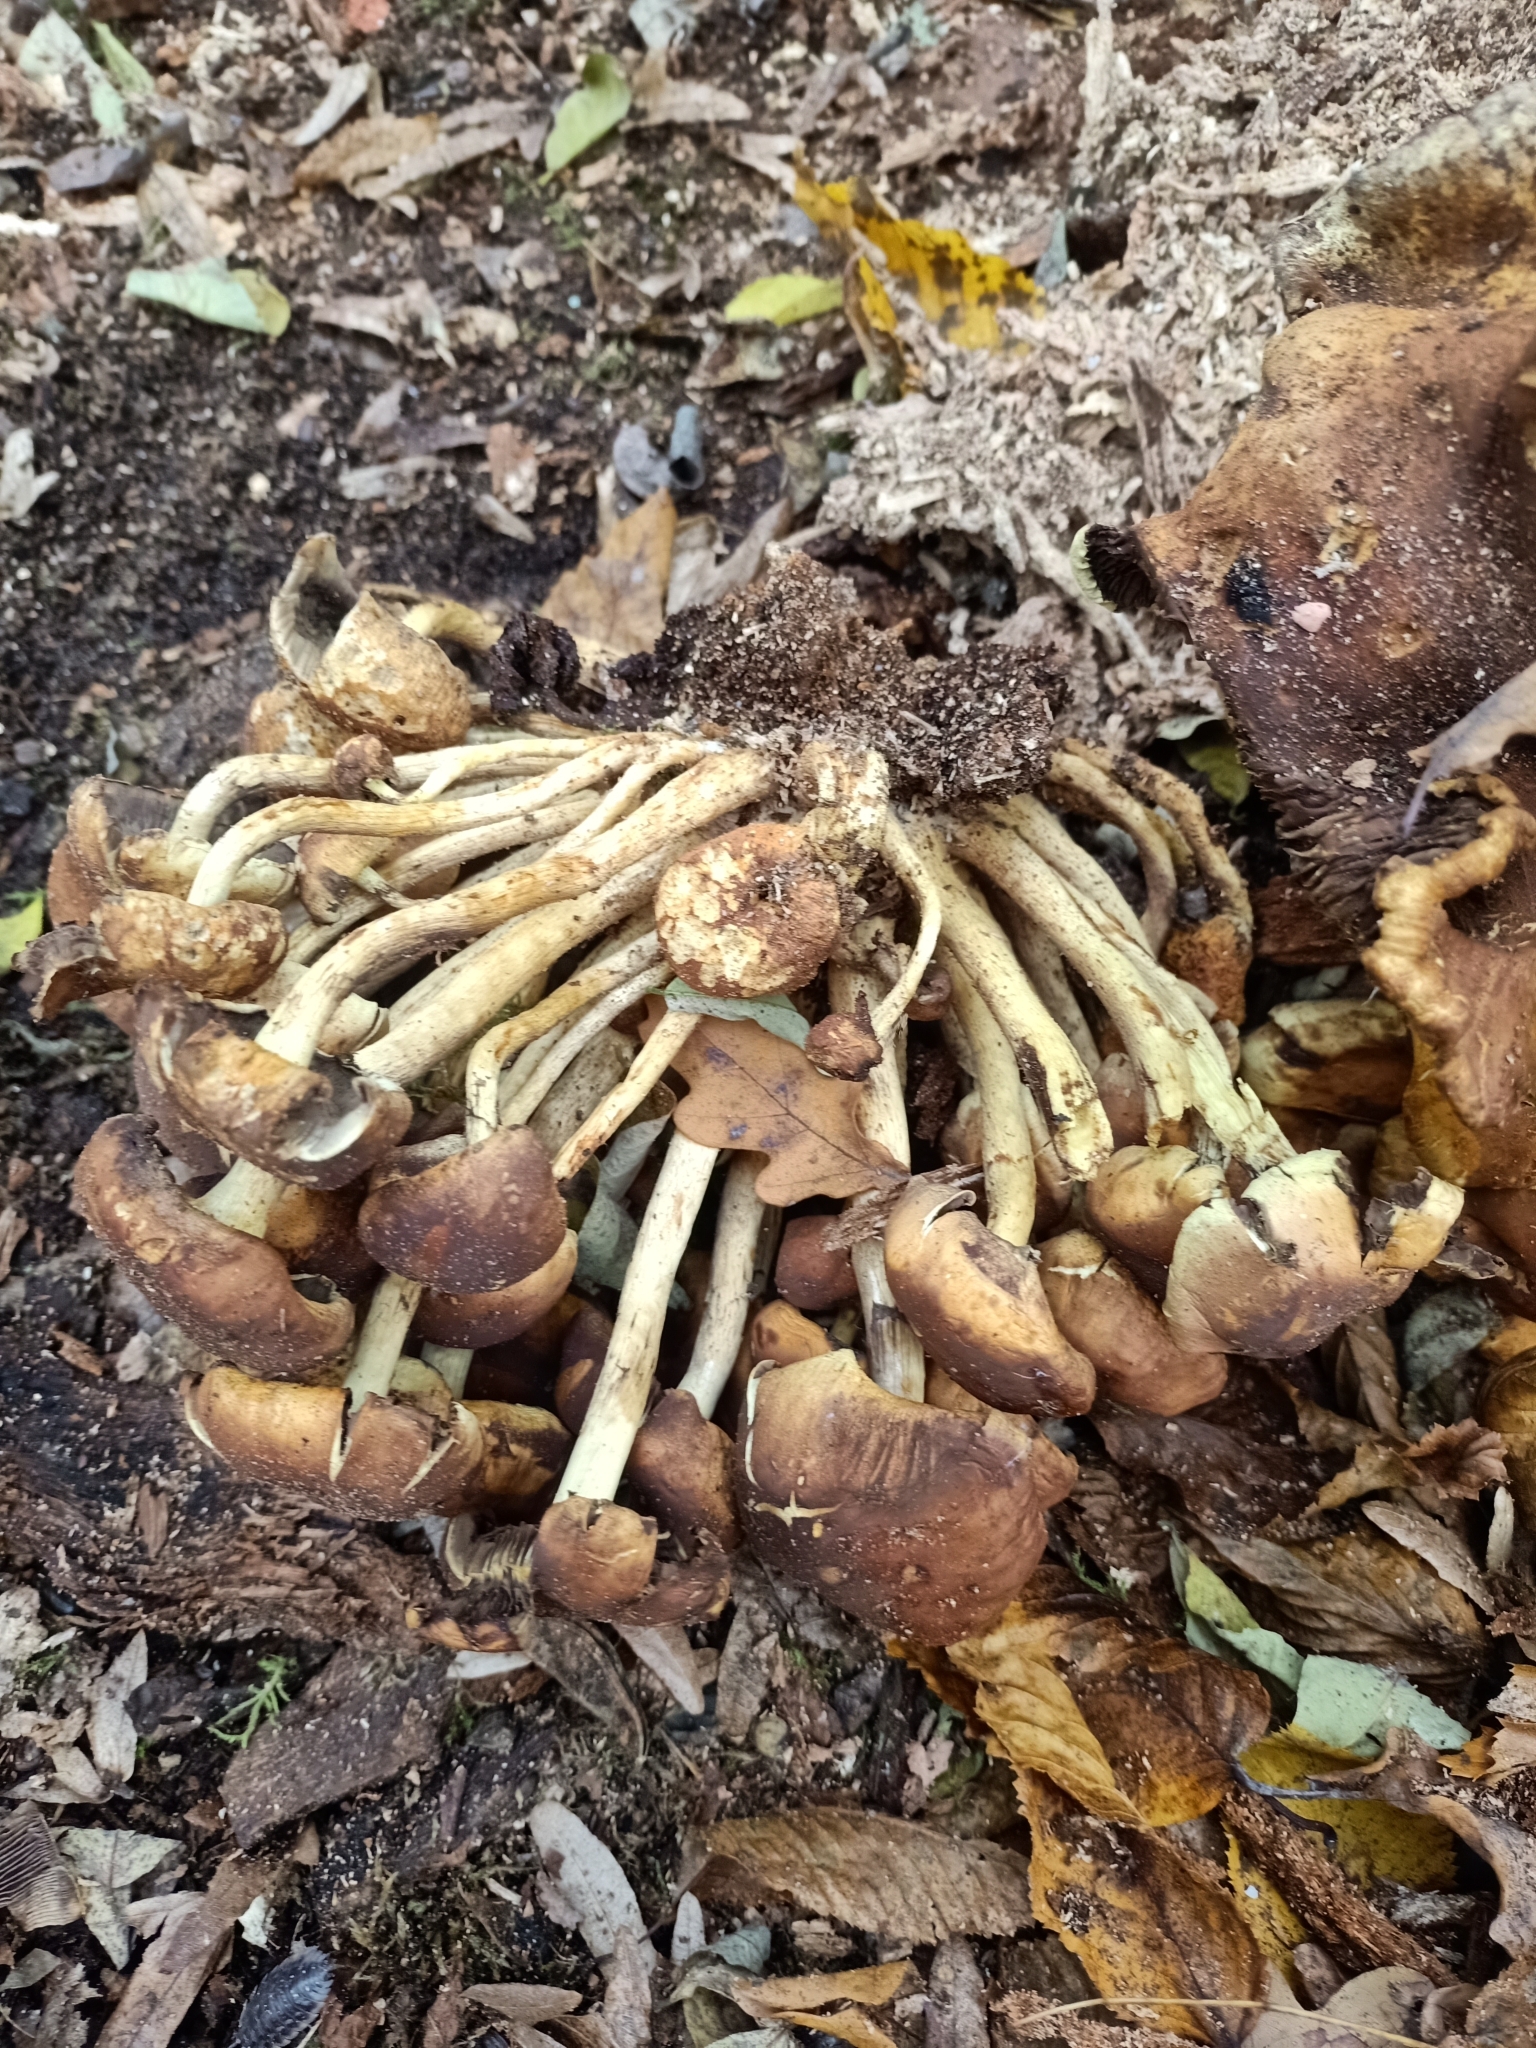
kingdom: Fungi
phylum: Basidiomycota
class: Agaricomycetes
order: Agaricales
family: Strophariaceae
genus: Hypholoma
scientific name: Hypholoma fasciculare
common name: Sulphur tuft
